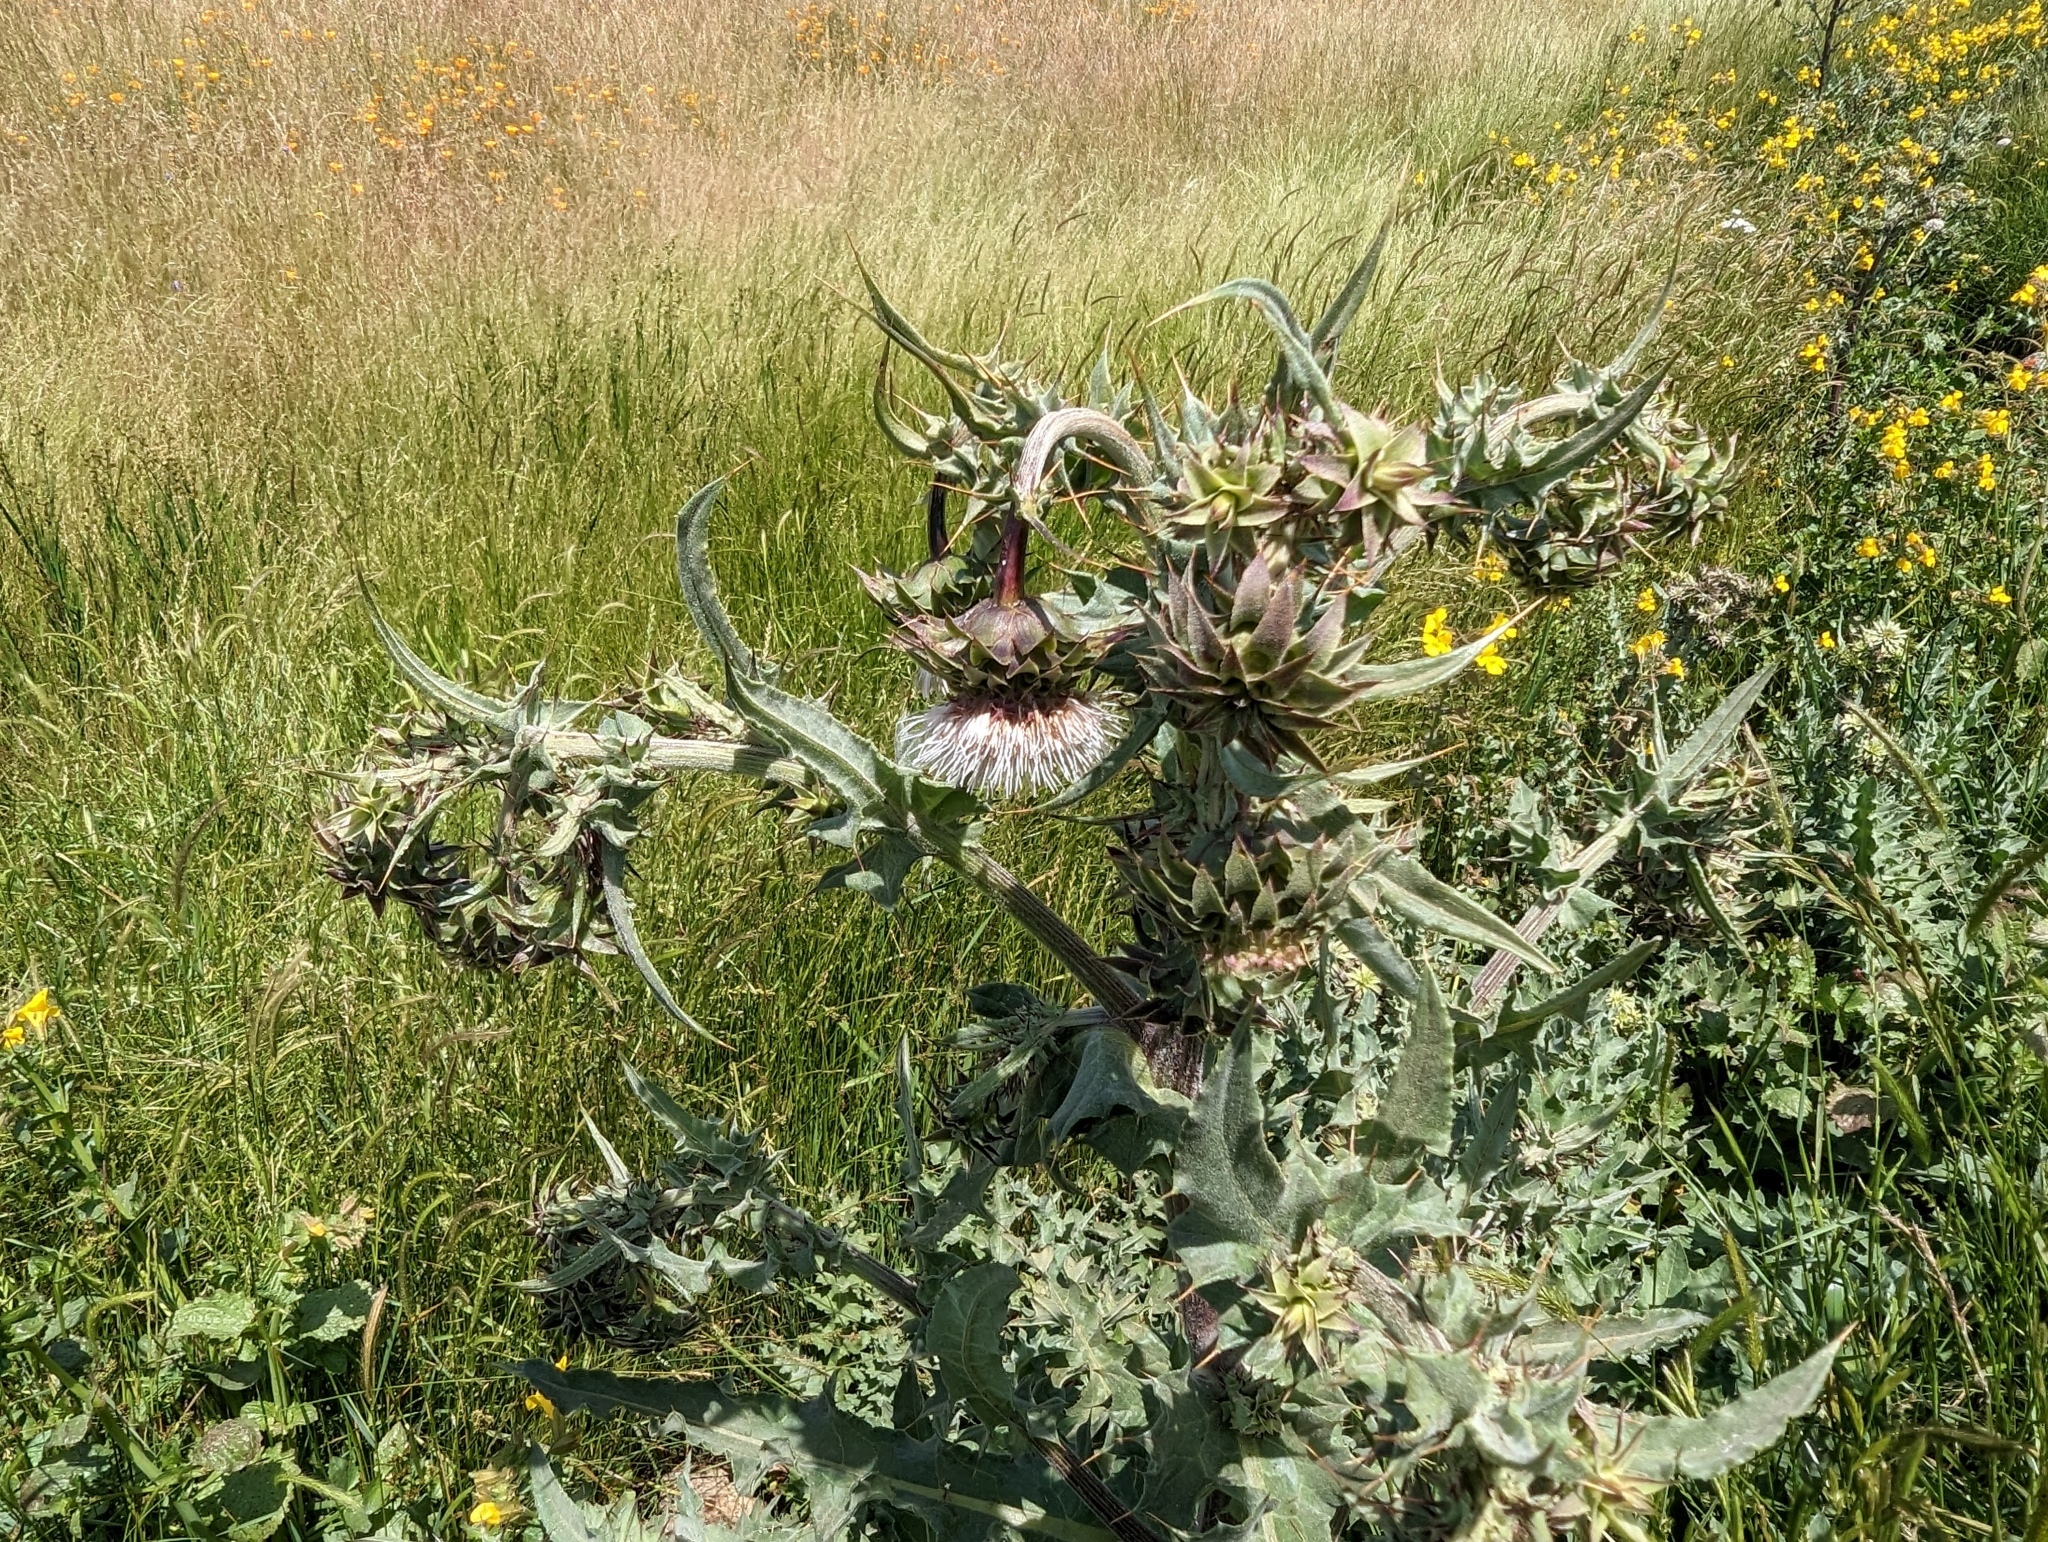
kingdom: Plantae
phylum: Tracheophyta
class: Magnoliopsida
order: Asterales
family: Asteraceae
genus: Cirsium
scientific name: Cirsium fontinale
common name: Fountain thistle
